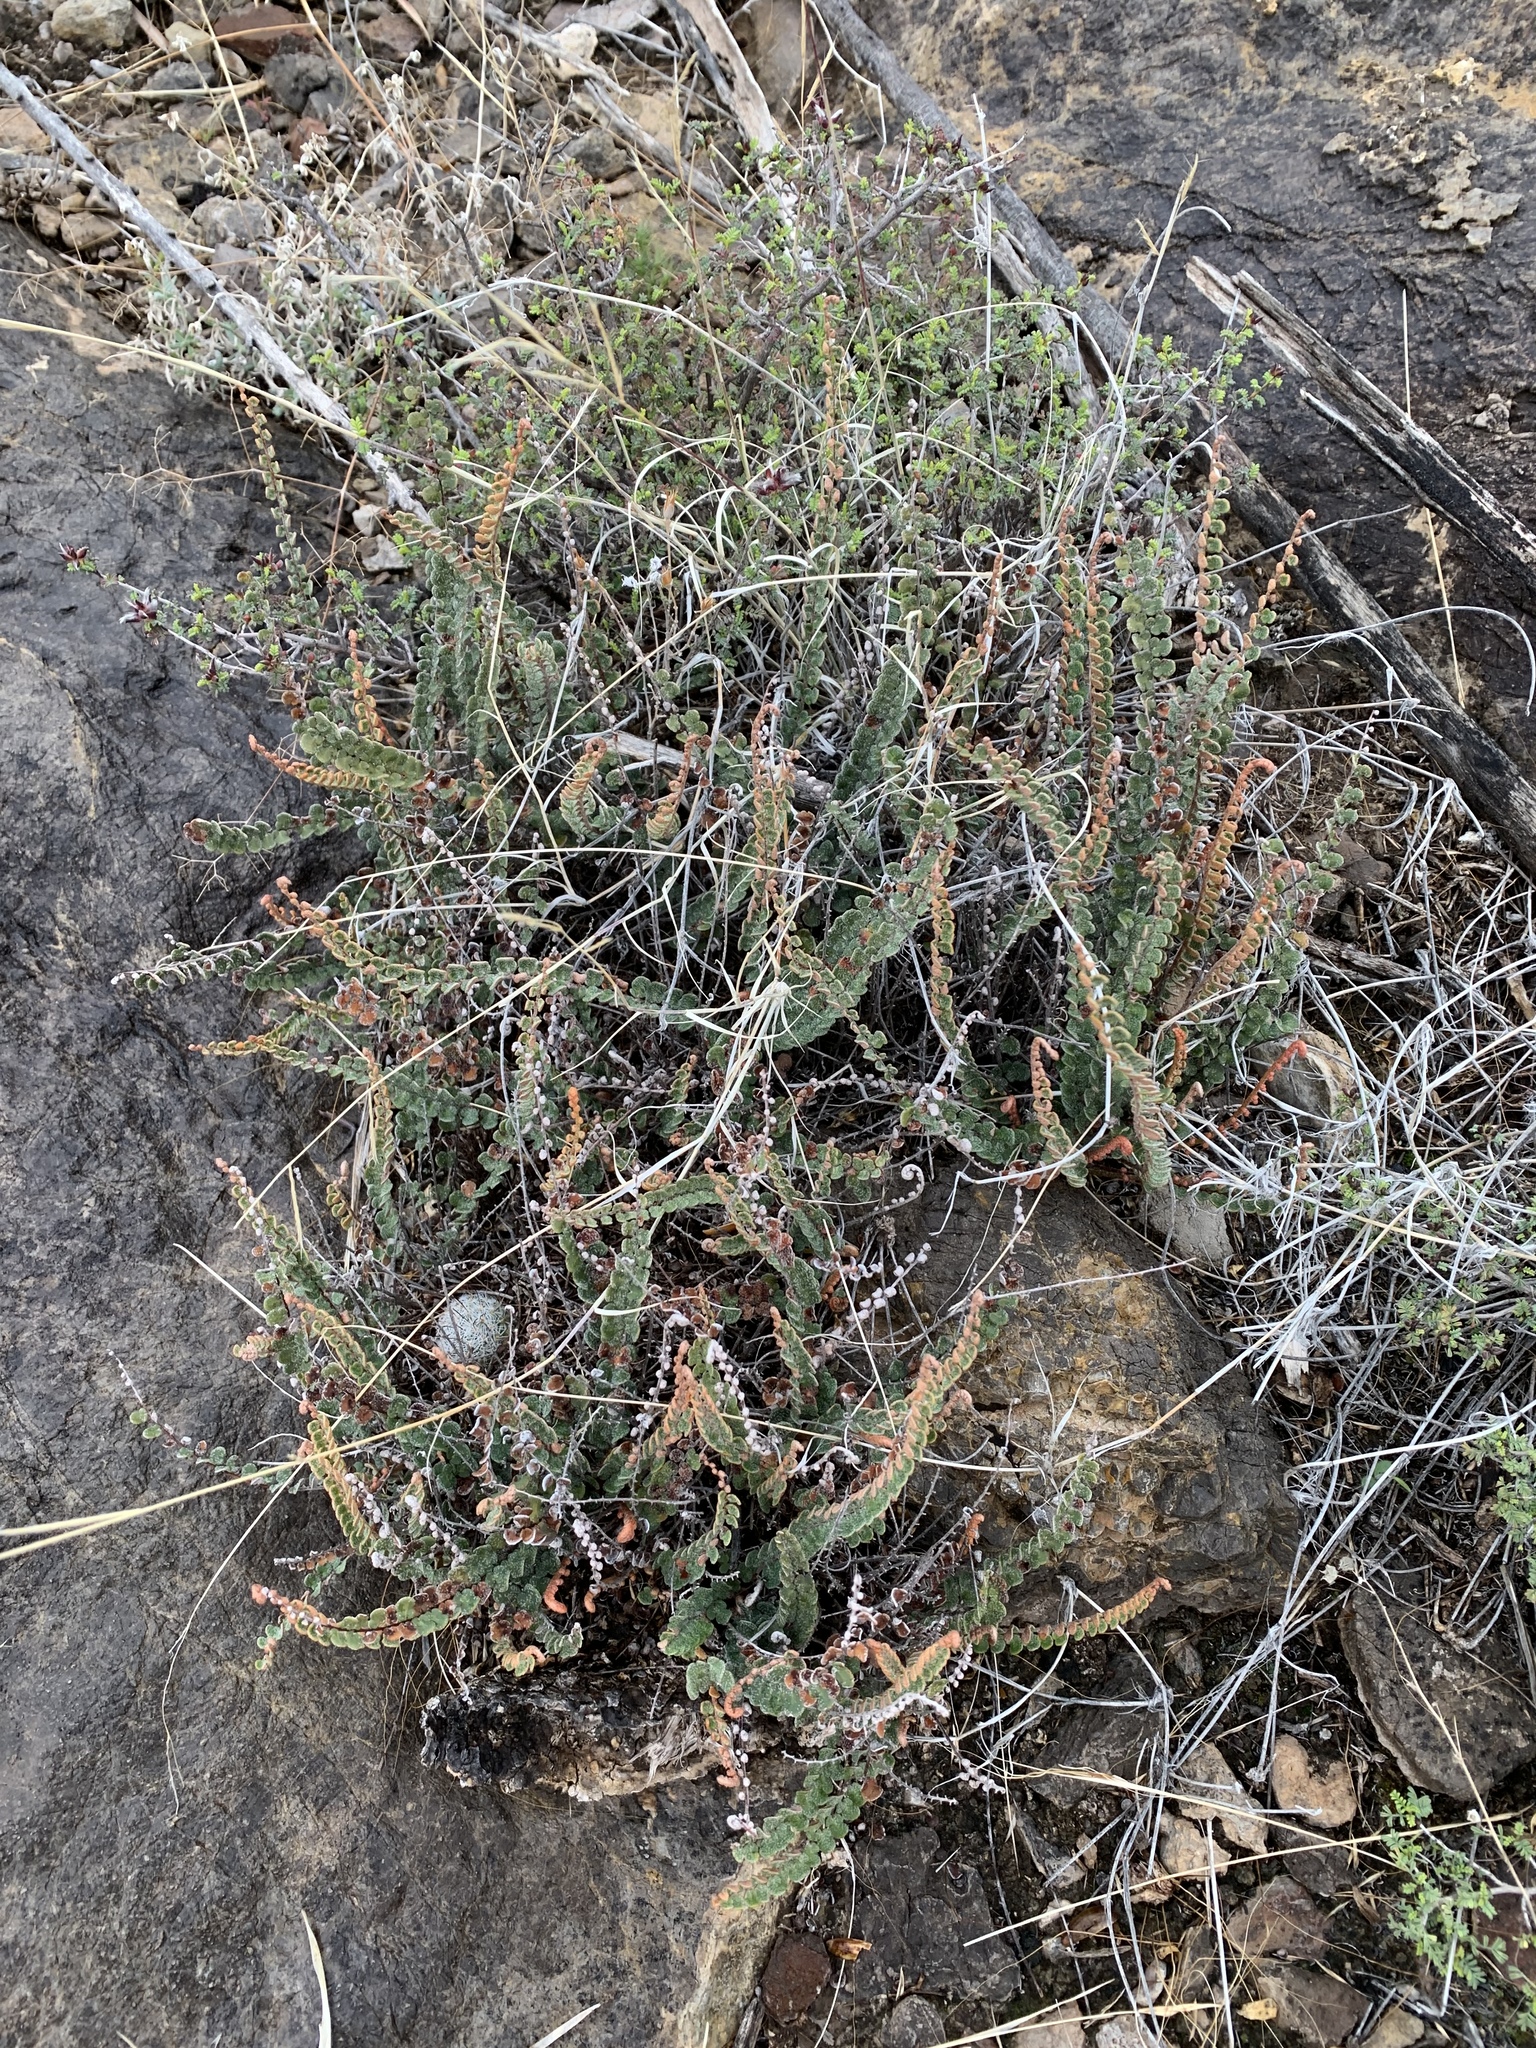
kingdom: Plantae
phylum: Tracheophyta
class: Polypodiopsida
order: Polypodiales
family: Pteridaceae
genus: Astrolepis
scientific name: Astrolepis cochisensis
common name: Scaly cloak fern
